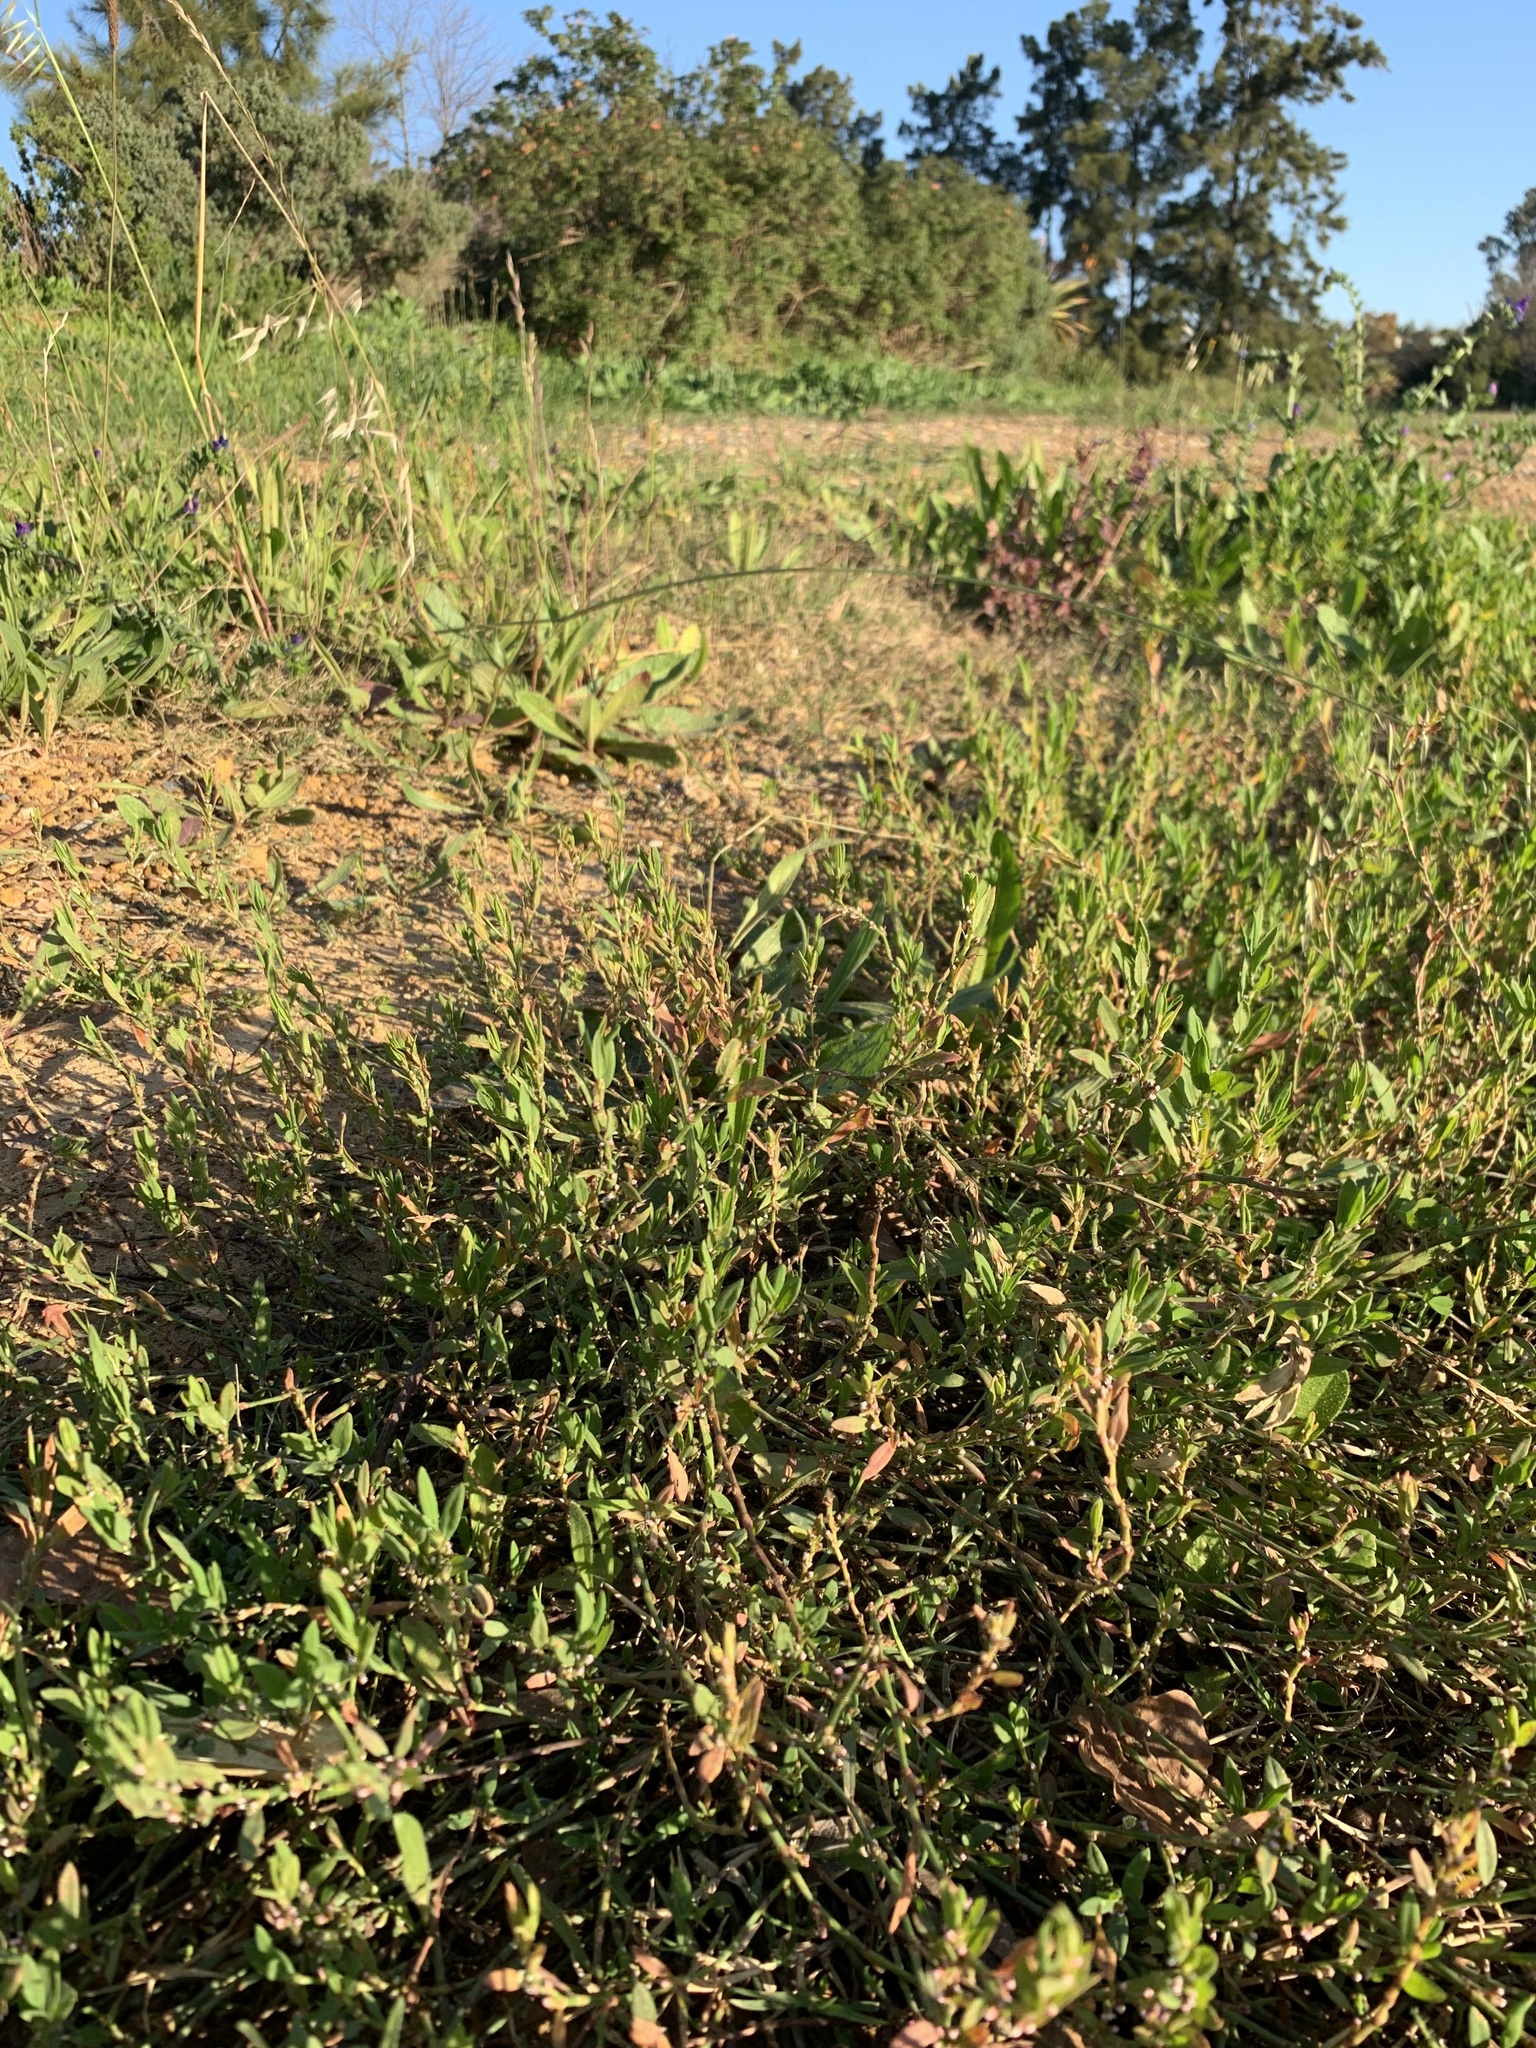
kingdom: Plantae
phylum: Tracheophyta
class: Magnoliopsida
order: Caryophyllales
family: Polygonaceae
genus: Polygonum
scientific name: Polygonum aviculare
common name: Prostrate knotweed
